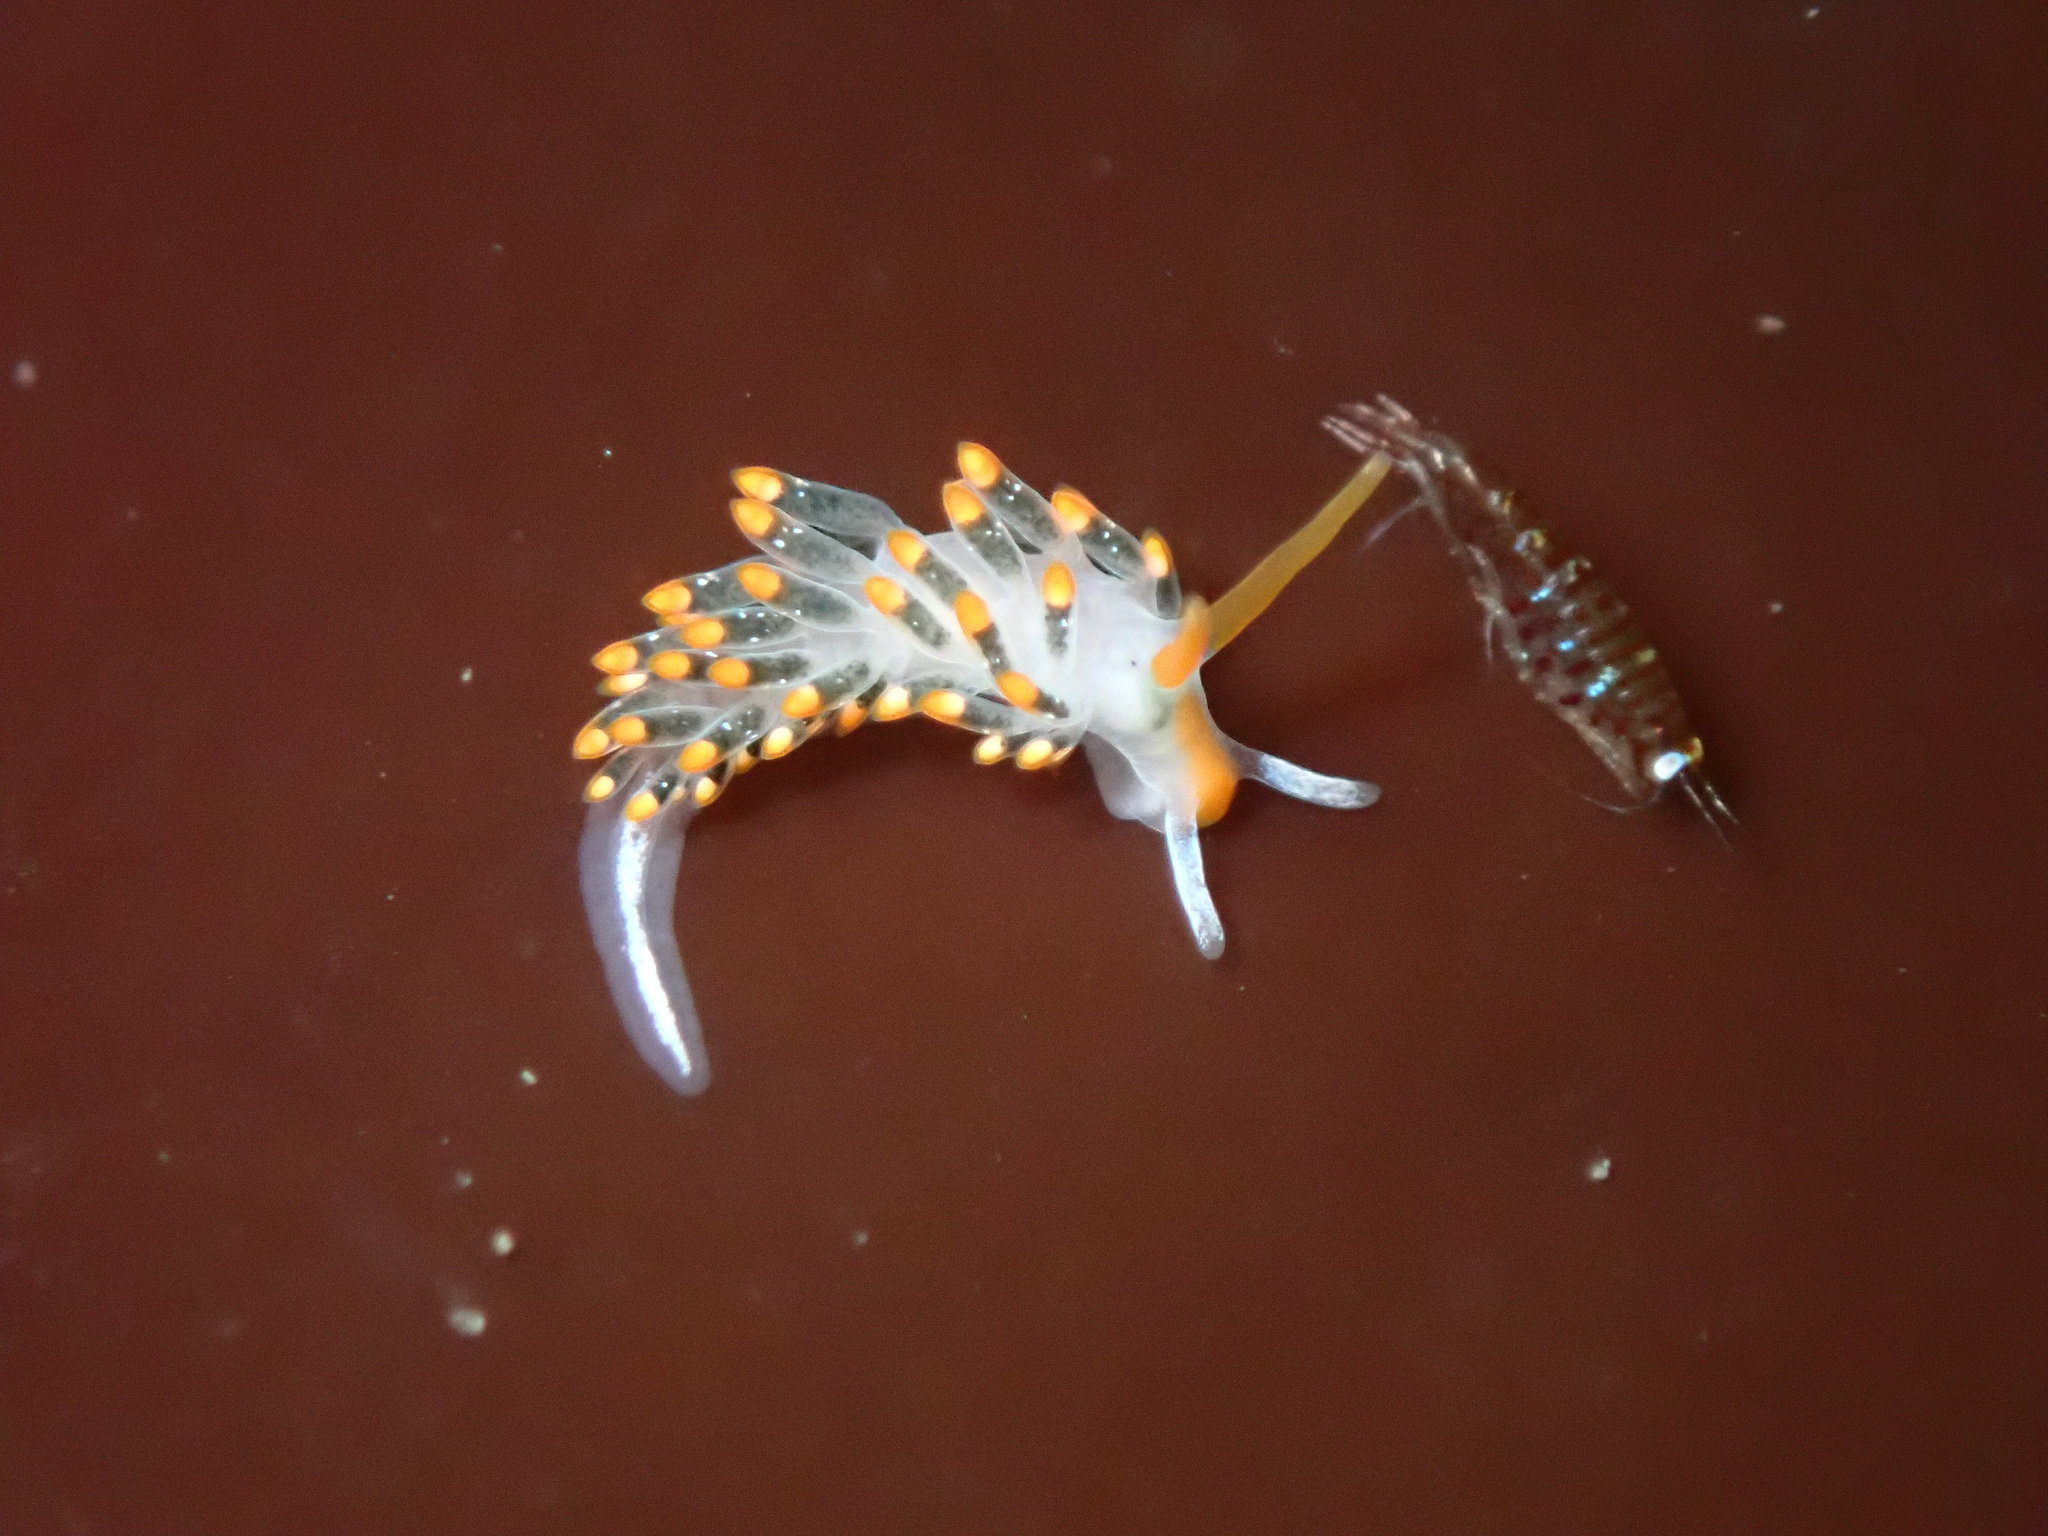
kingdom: Animalia
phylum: Mollusca
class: Gastropoda
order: Nudibranchia
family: Trinchesiidae
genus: Diaphoreolis
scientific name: Diaphoreolis lagunae
